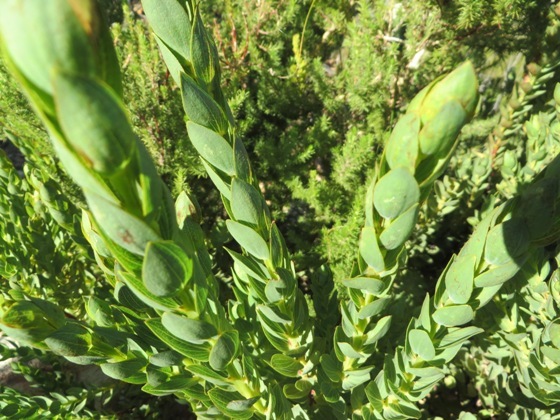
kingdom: Plantae
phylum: Tracheophyta
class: Magnoliopsida
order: Fabales
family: Fabaceae
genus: Aspalathus
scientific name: Aspalathus elliptica
